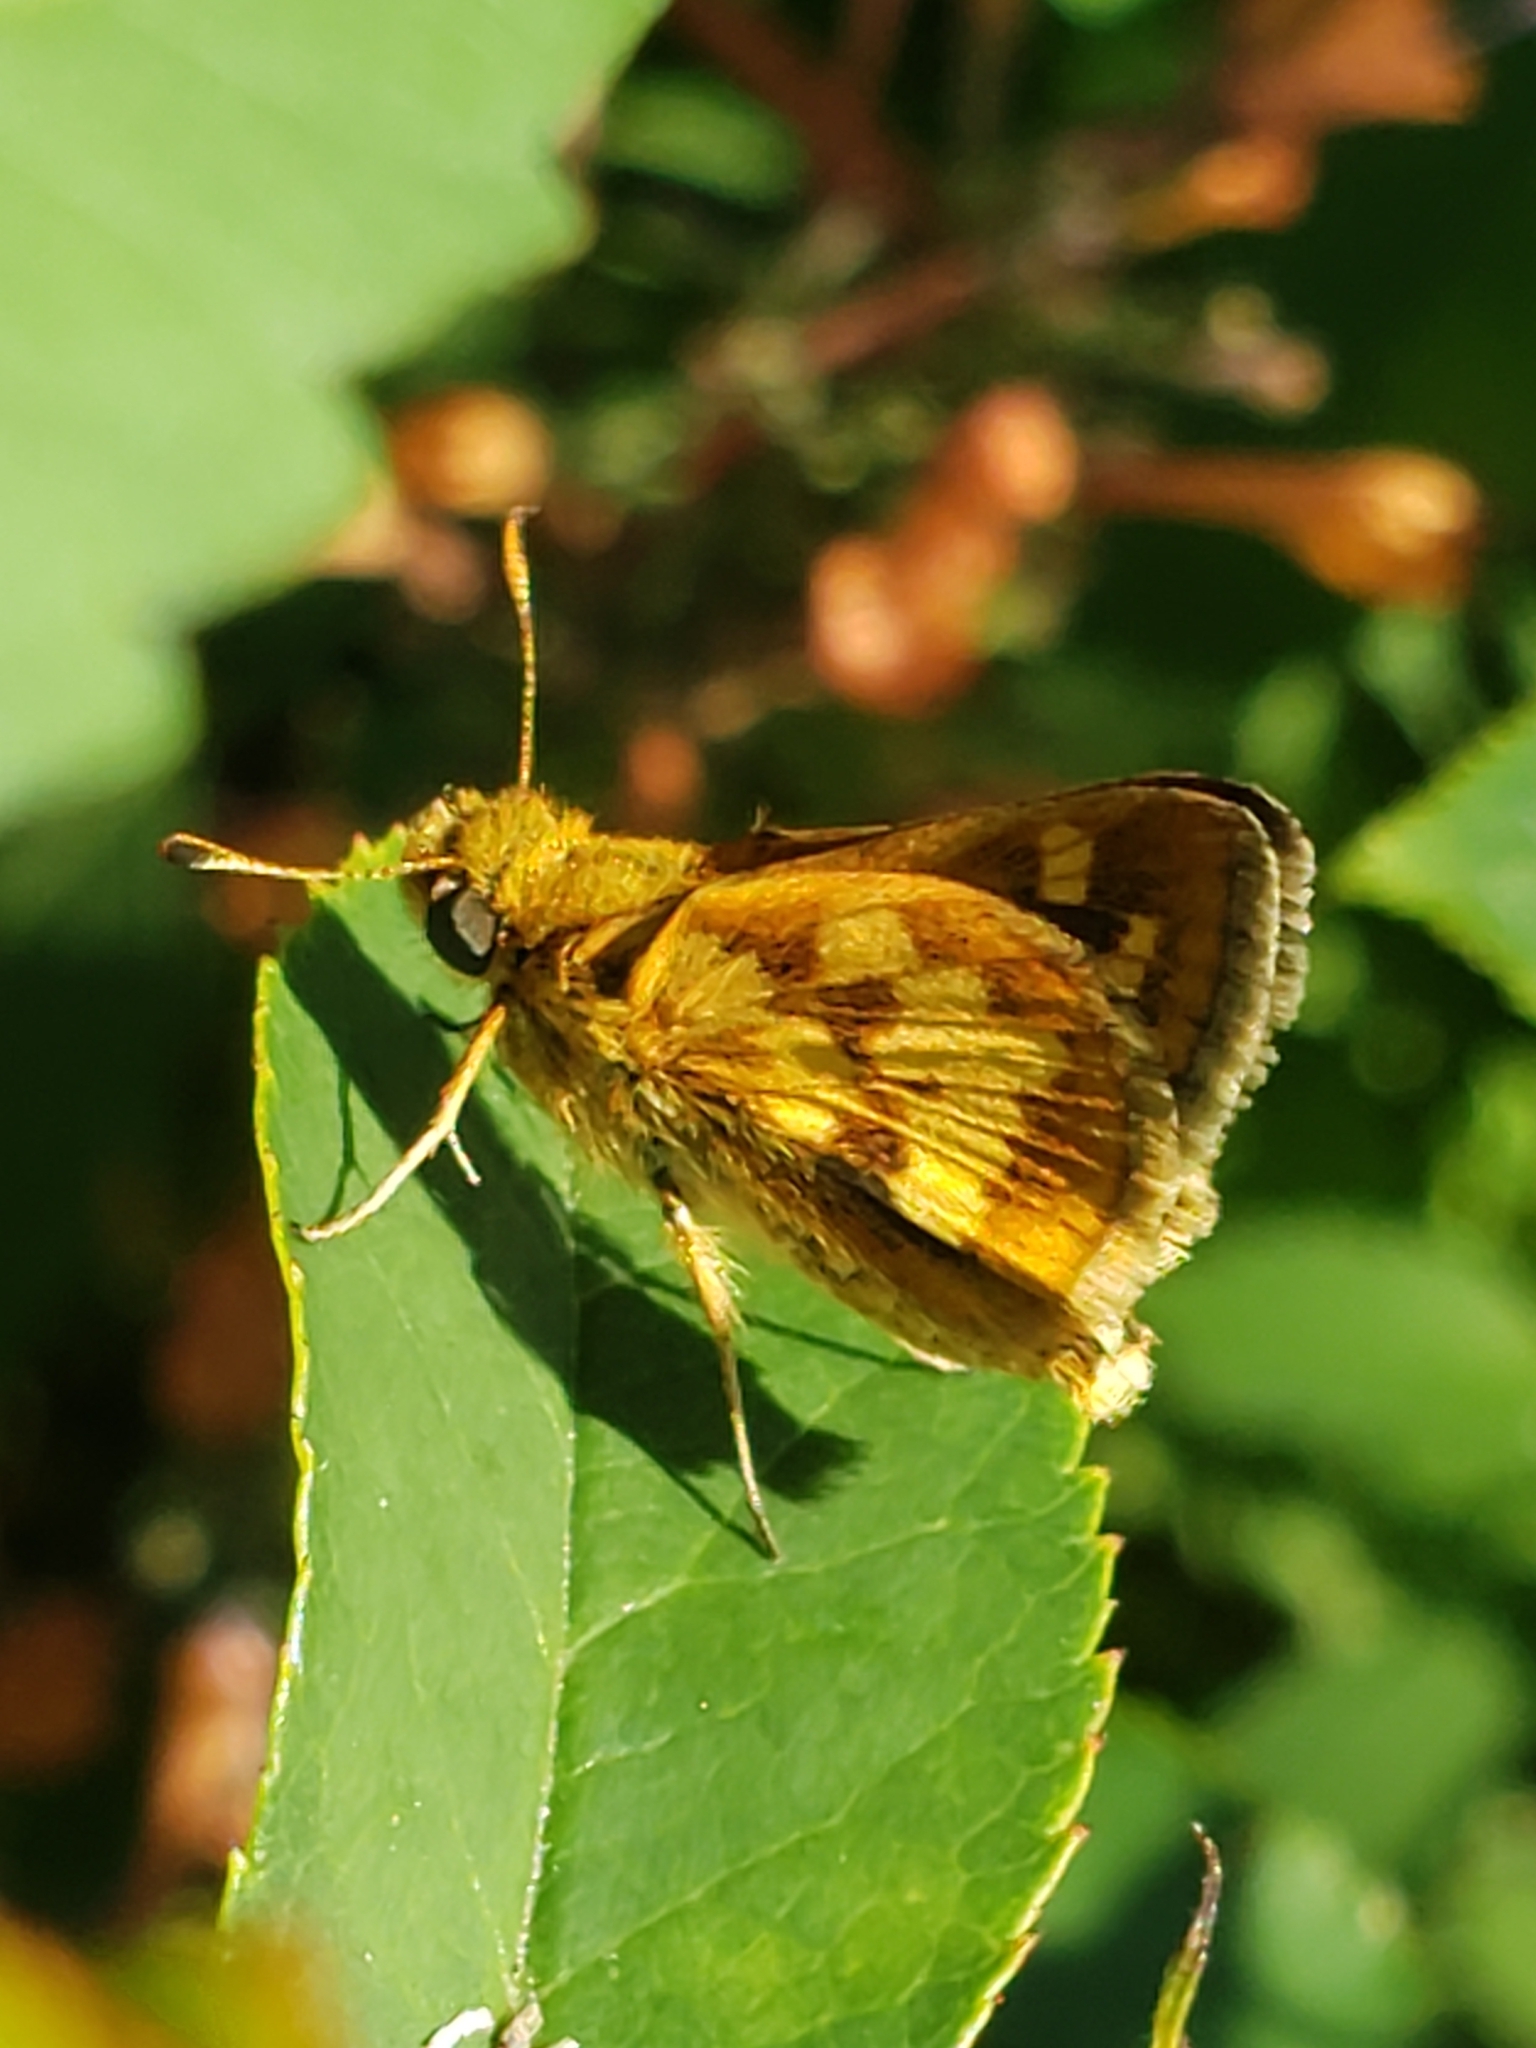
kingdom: Animalia
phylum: Arthropoda
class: Insecta
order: Lepidoptera
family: Hesperiidae
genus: Polites
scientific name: Polites coras
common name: Peck's skipper
